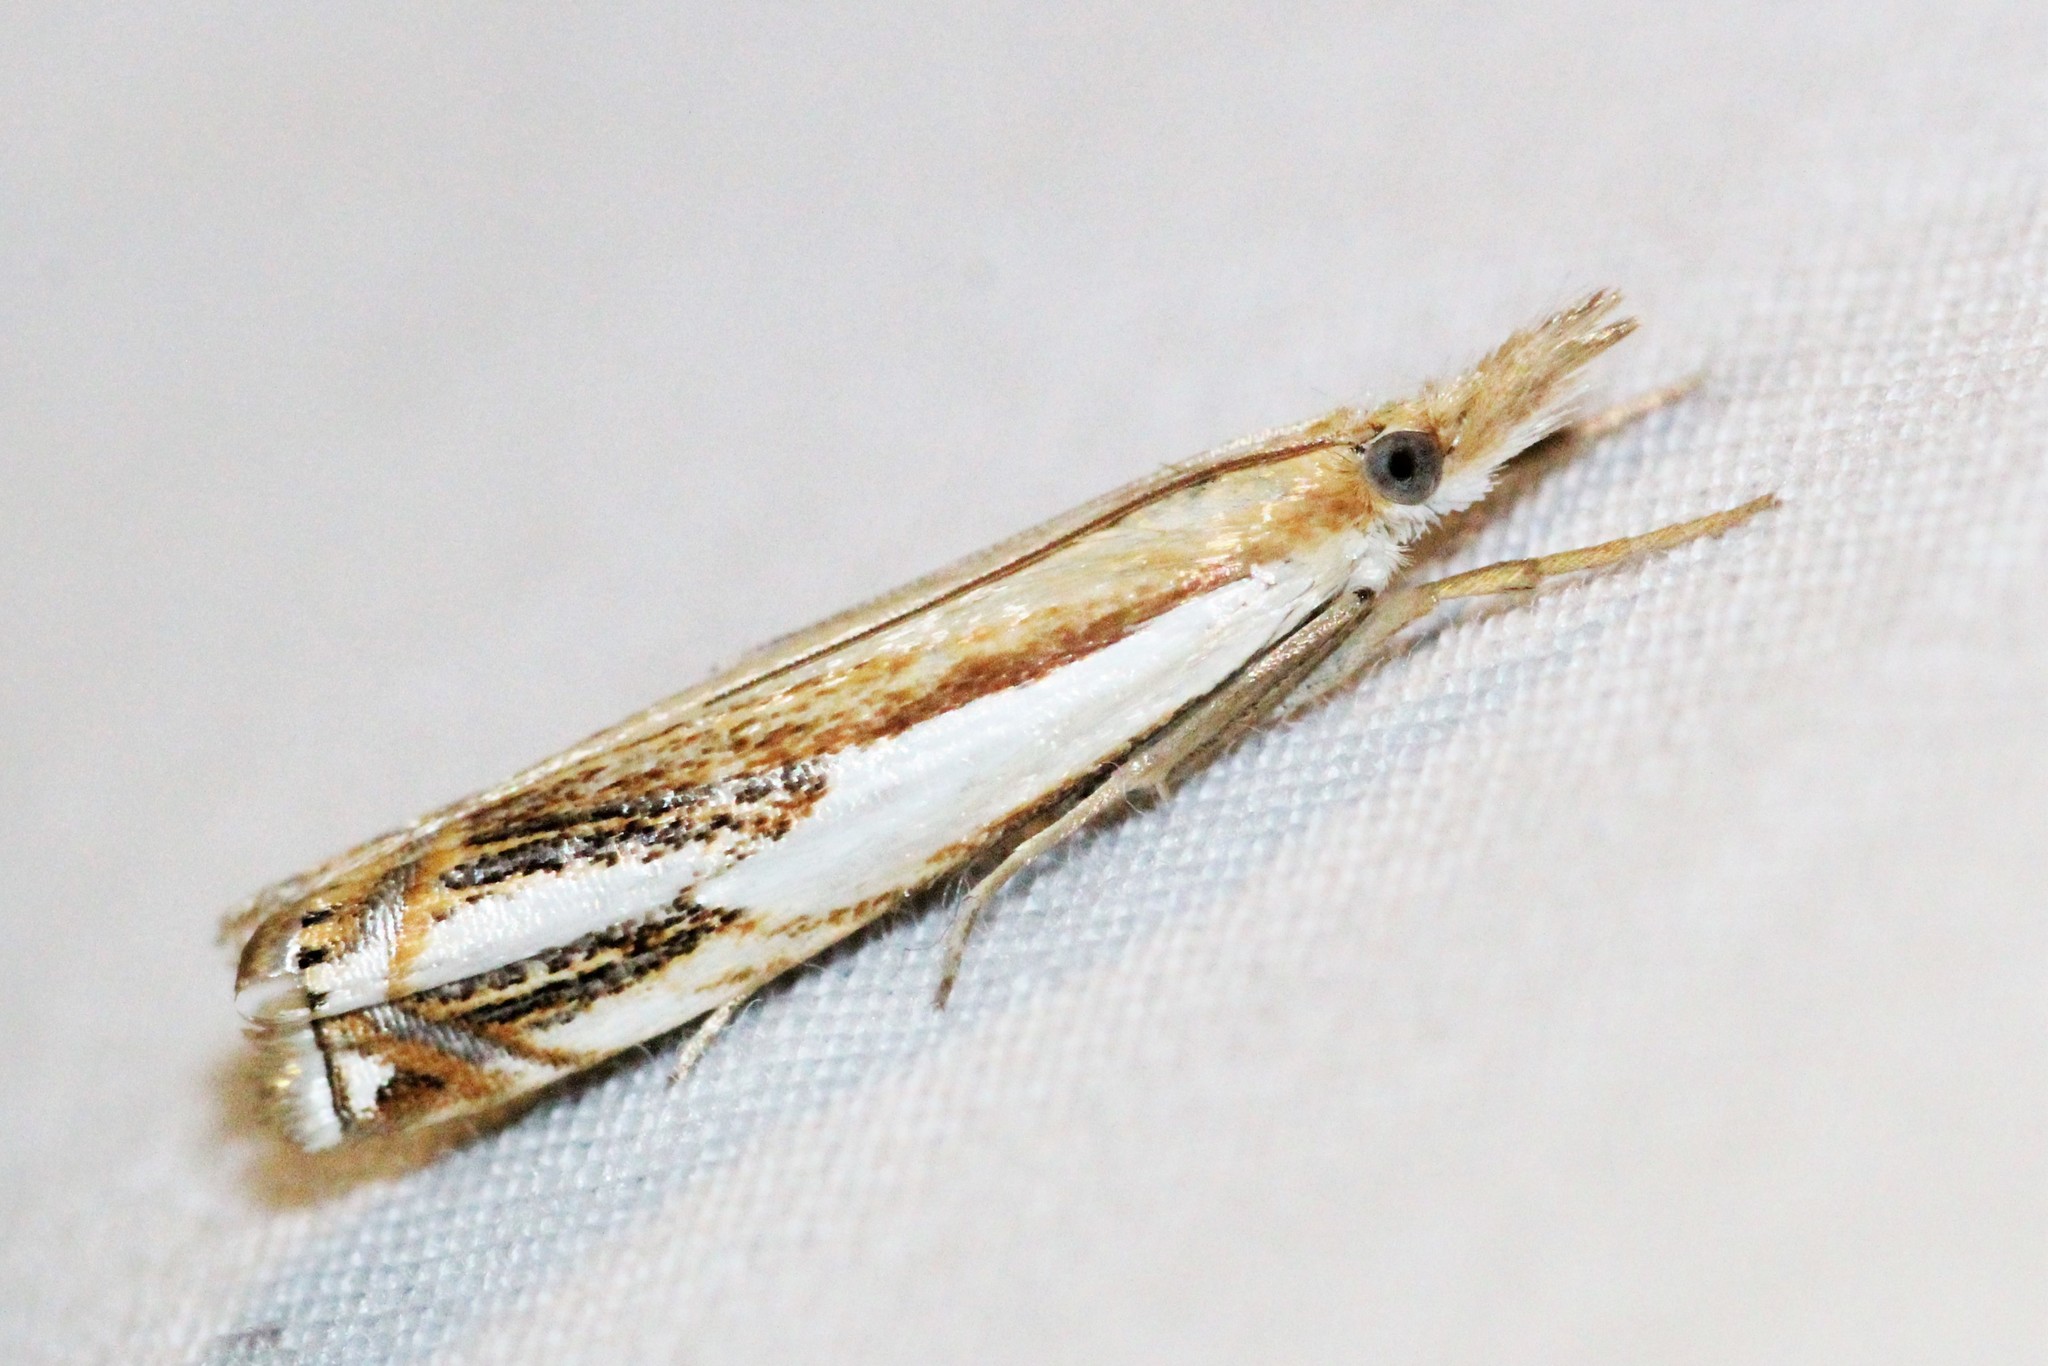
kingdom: Animalia
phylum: Arthropoda
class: Insecta
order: Lepidoptera
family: Crambidae
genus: Crambus
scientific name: Crambus agitatellus
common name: Double-banded grass-veneer
